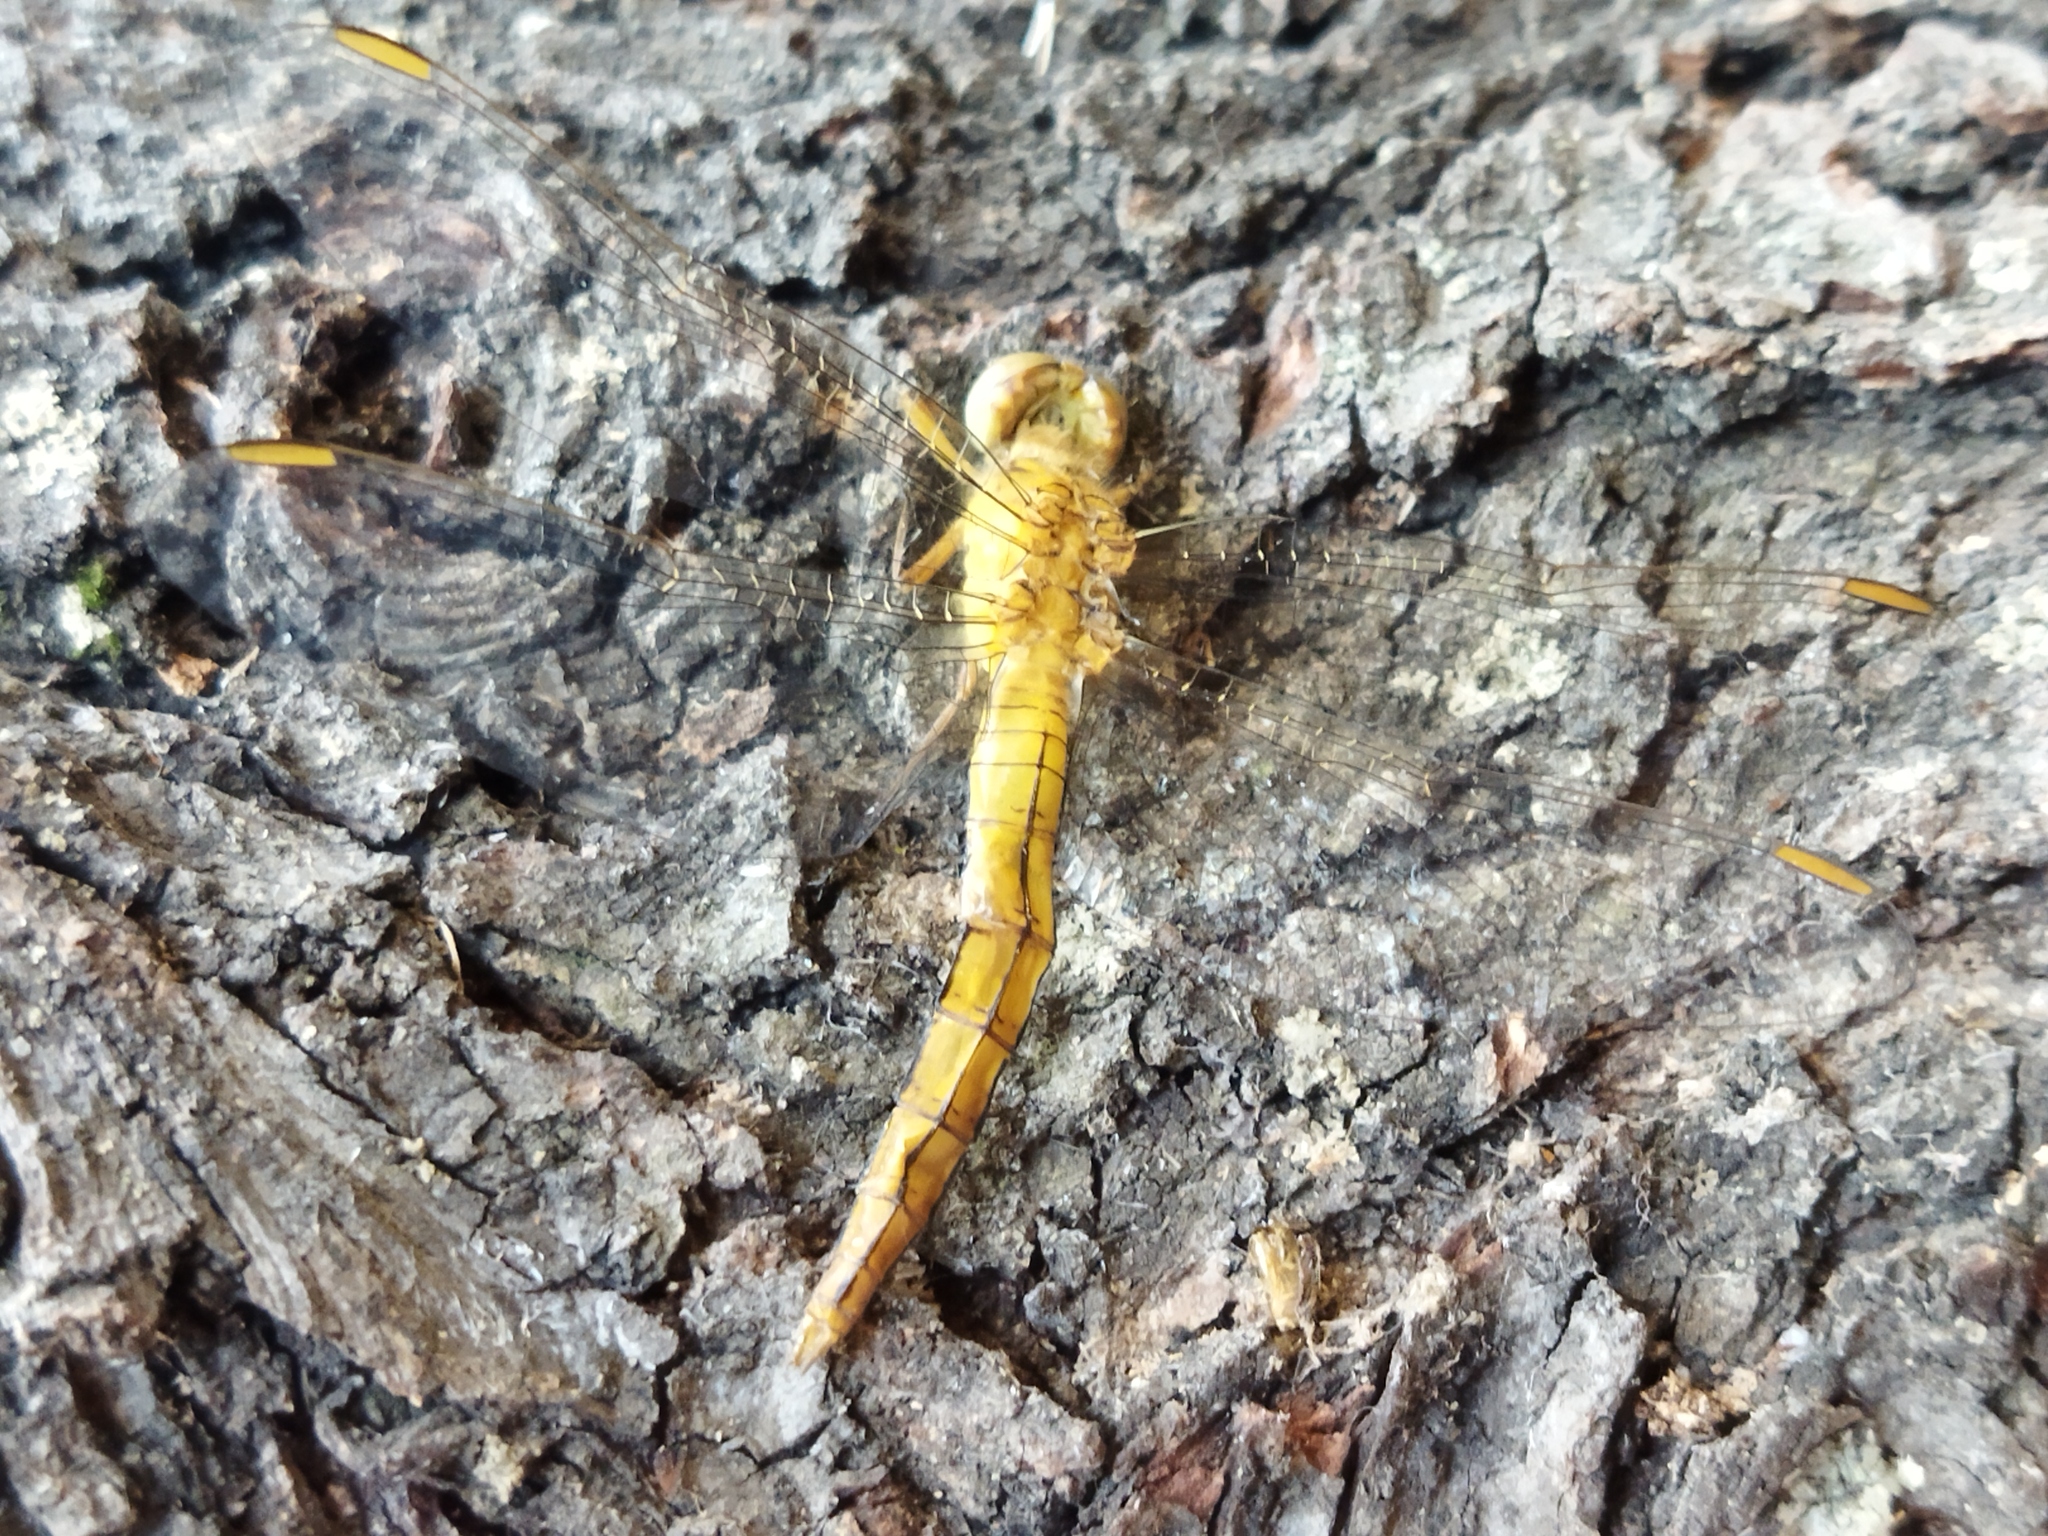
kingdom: Animalia
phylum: Arthropoda
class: Insecta
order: Odonata
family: Libellulidae
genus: Orthetrum
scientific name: Orthetrum coerulescens
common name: Keeled skimmer
